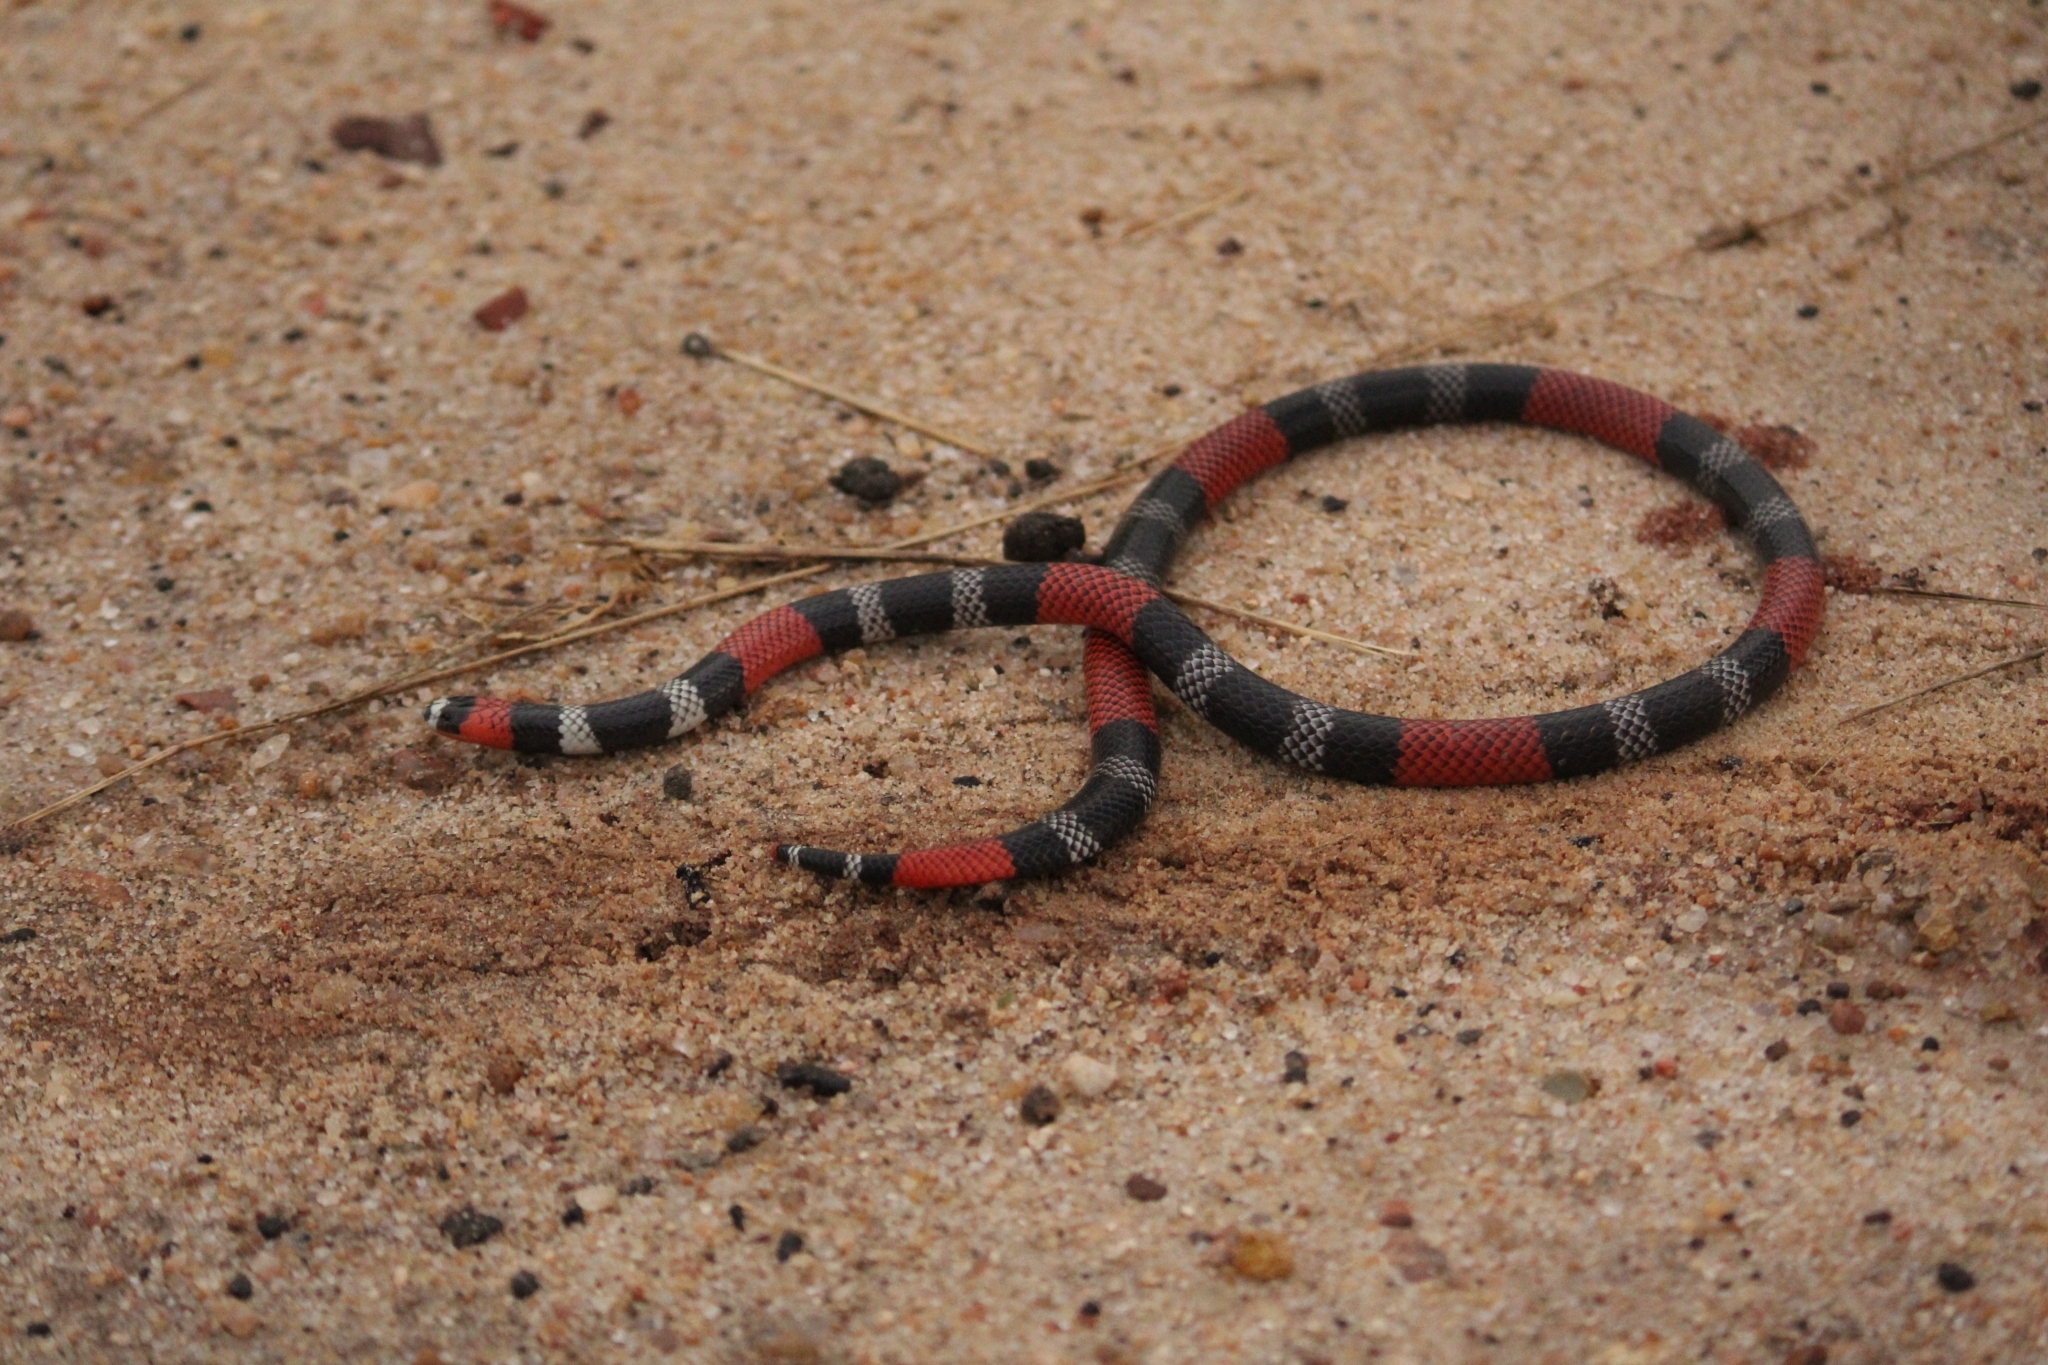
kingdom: Animalia
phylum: Chordata
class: Squamata
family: Elapidae
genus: Micrurus
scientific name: Micrurus ibiboboca
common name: Caatinga coral snake
